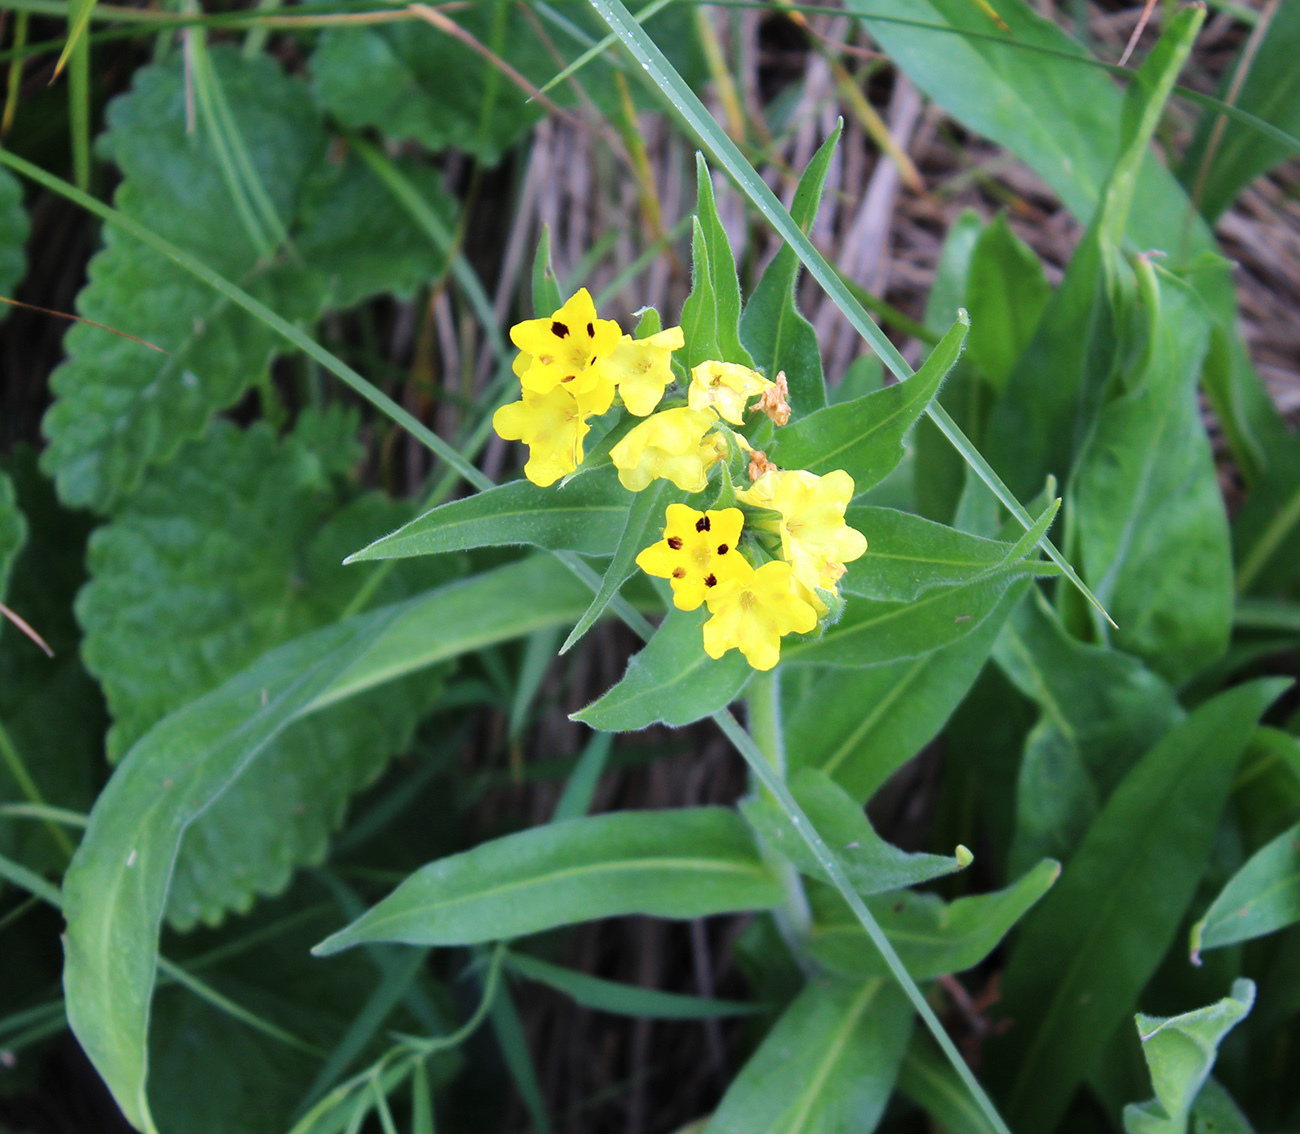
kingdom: Plantae
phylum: Tracheophyta
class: Magnoliopsida
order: Boraginales
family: Boraginaceae
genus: Huynhia
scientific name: Huynhia pulchra
